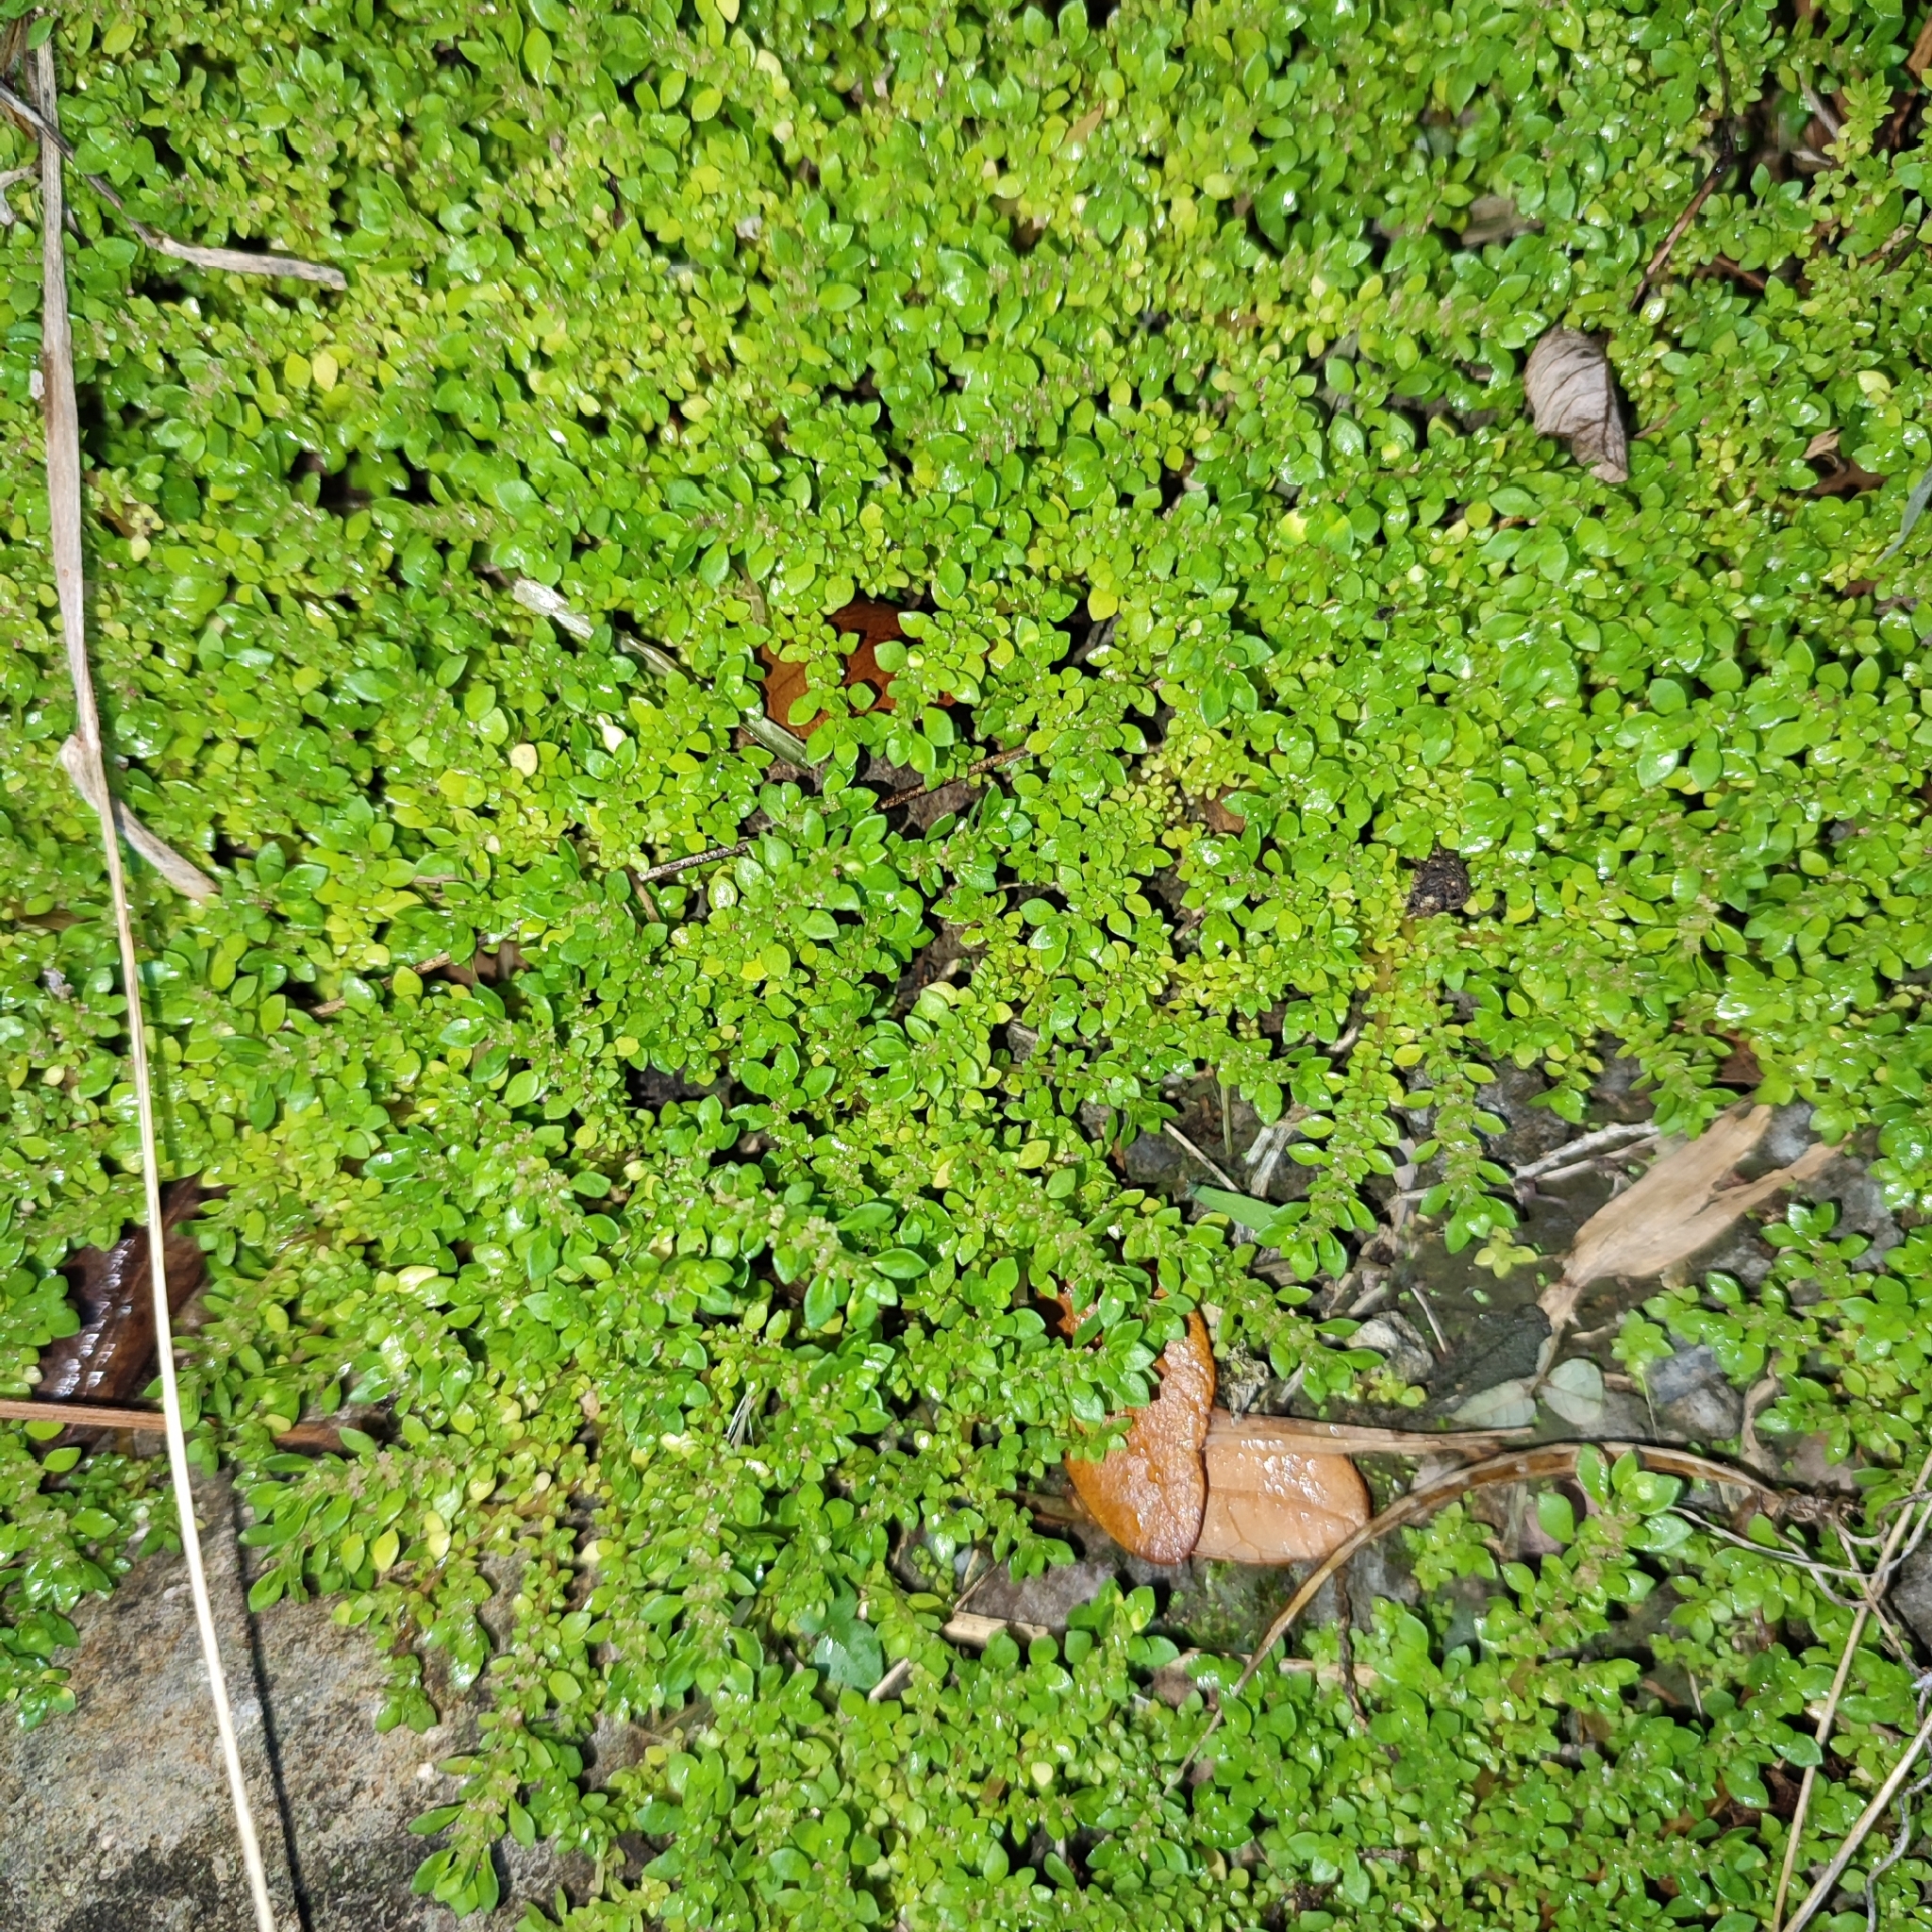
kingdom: Plantae
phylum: Tracheophyta
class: Magnoliopsida
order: Rosales
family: Urticaceae
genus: Pilea
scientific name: Pilea microphylla
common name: Artillery-plant
